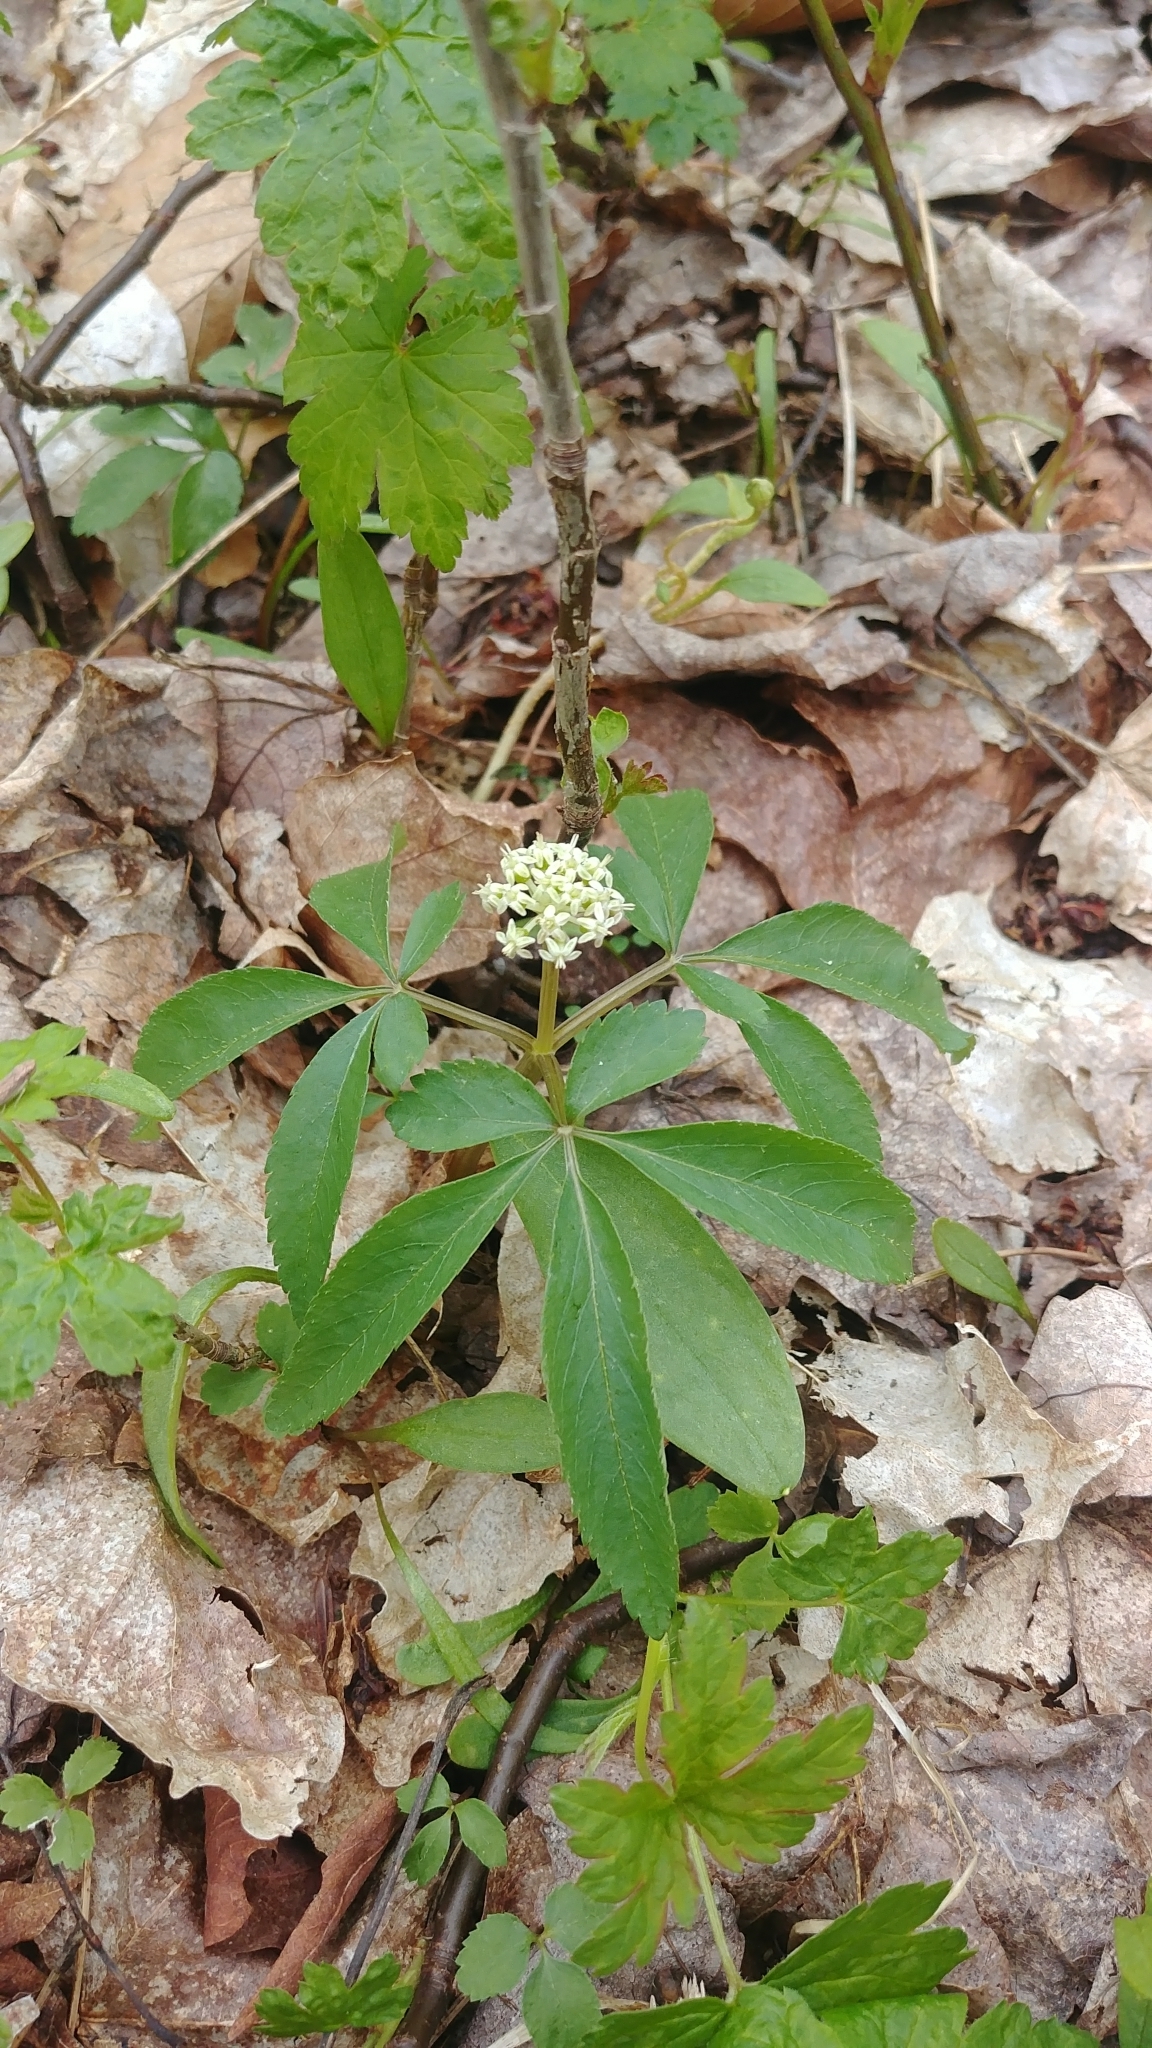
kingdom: Plantae
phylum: Tracheophyta
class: Magnoliopsida
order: Apiales
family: Araliaceae
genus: Panax
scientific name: Panax trifolius
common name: Dwarf ginseng
